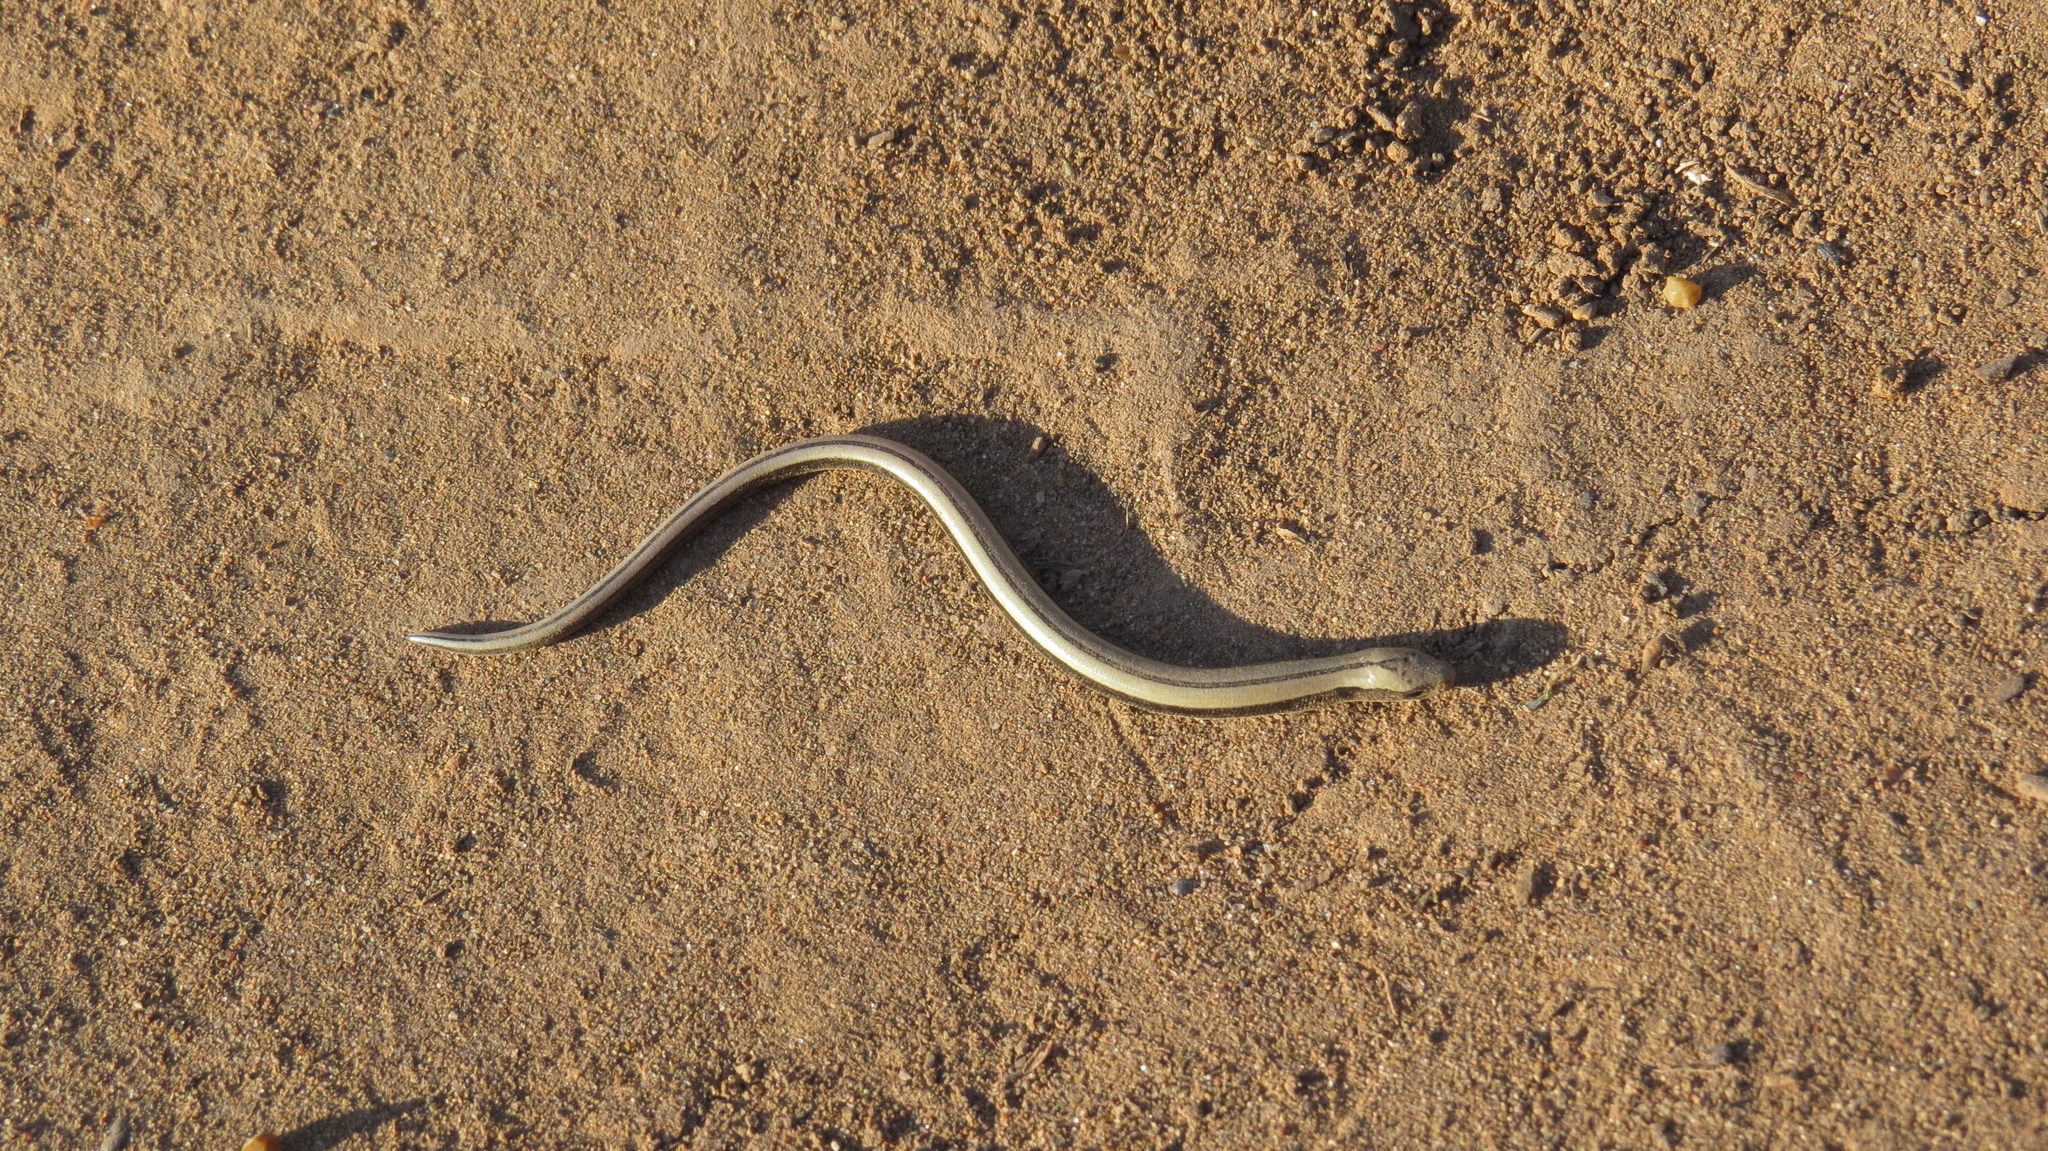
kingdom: Animalia
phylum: Chordata
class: Squamata
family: Anguidae
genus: Anguis
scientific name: Anguis
